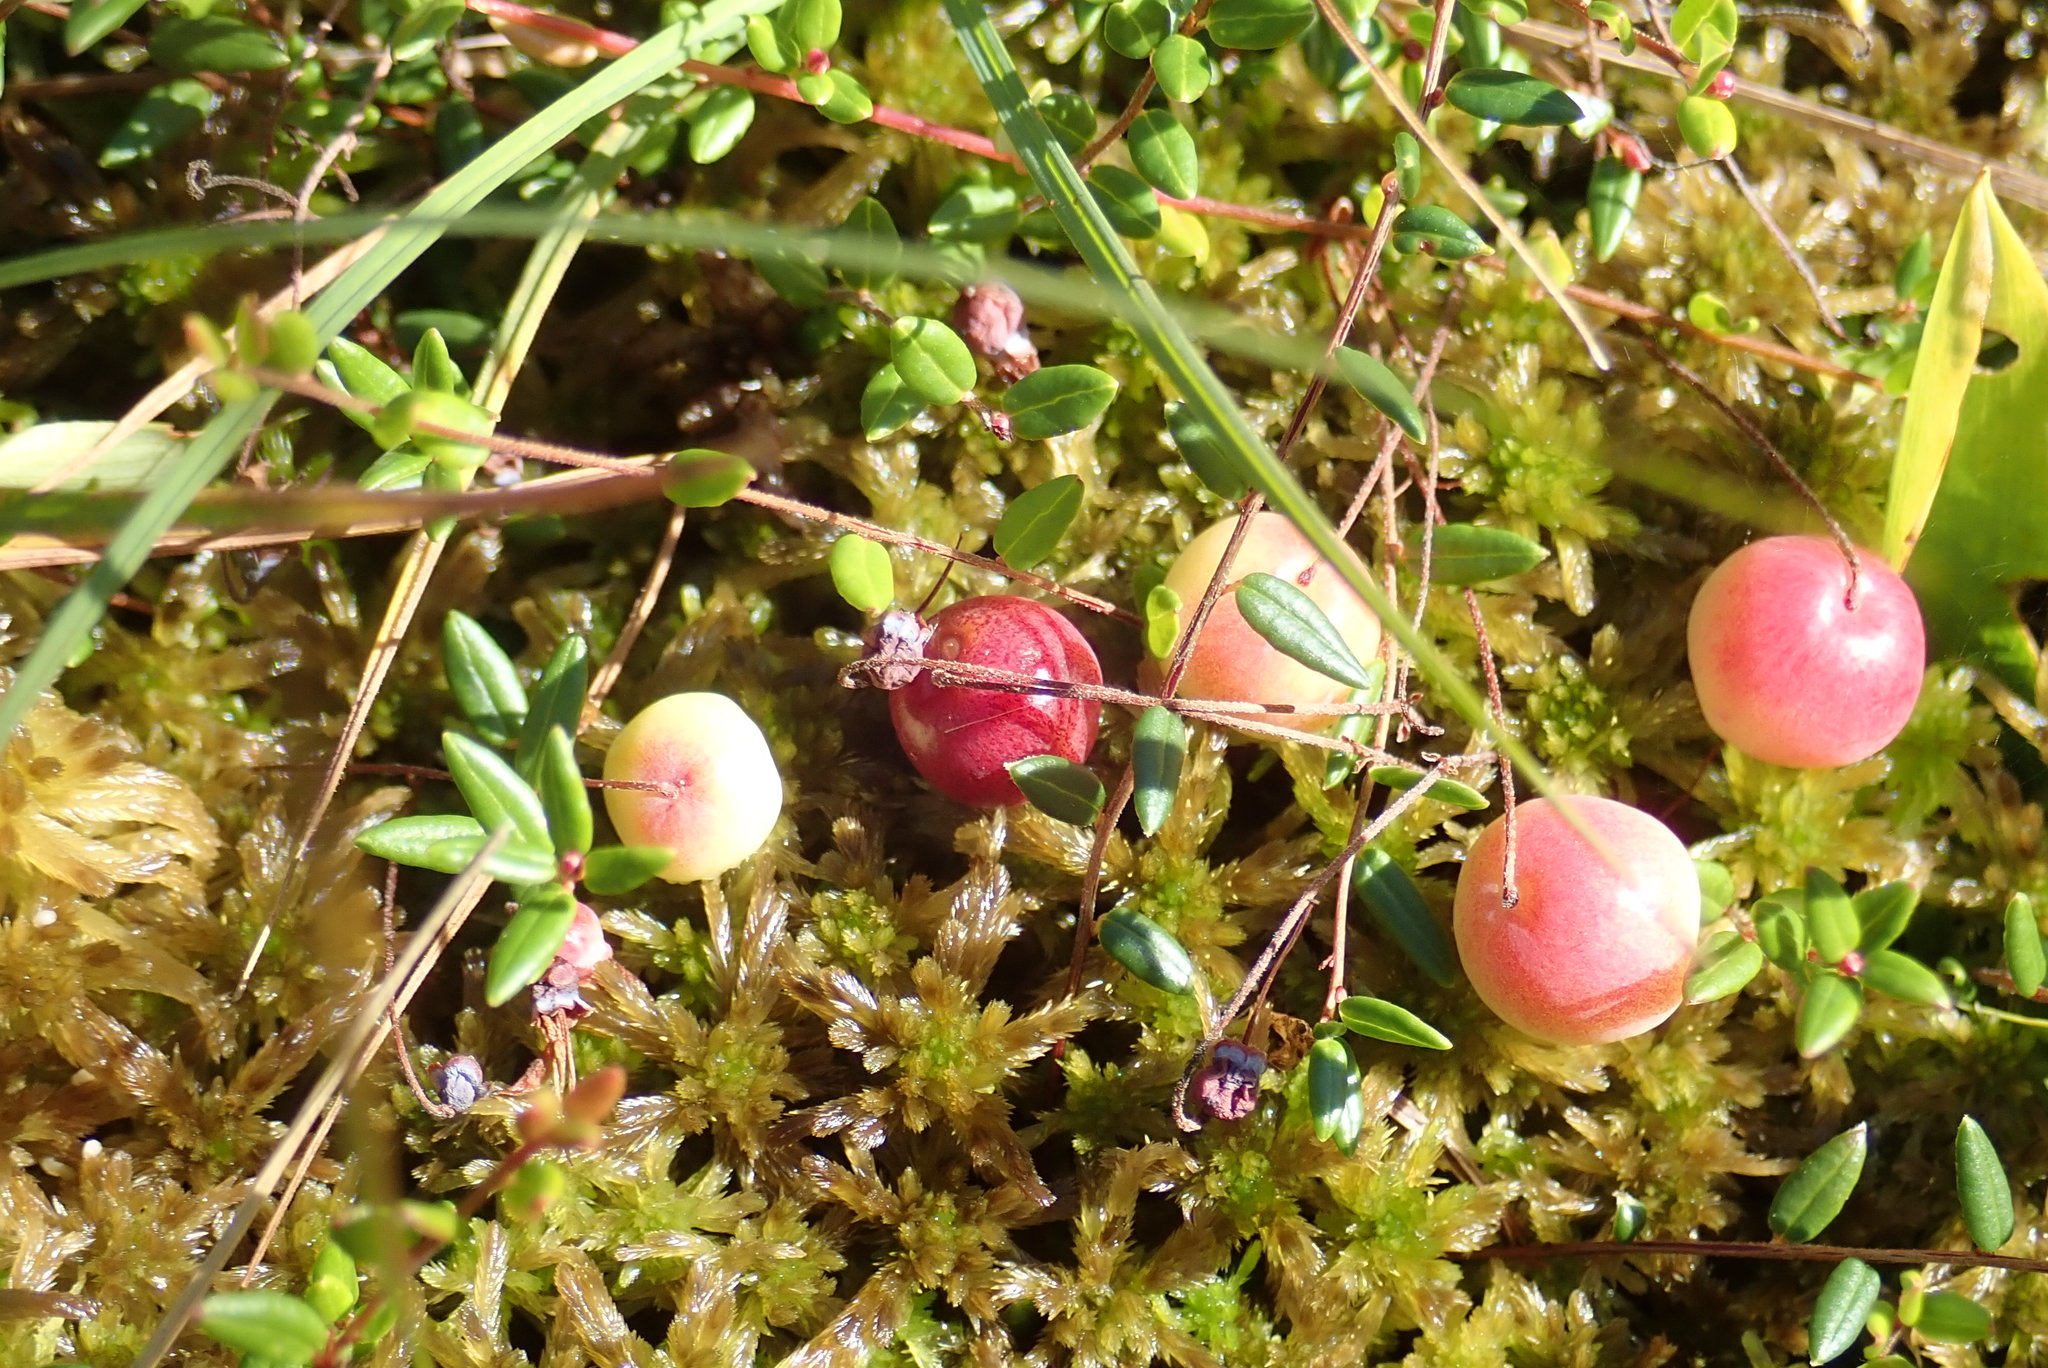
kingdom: Plantae
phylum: Tracheophyta
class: Magnoliopsida
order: Ericales
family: Ericaceae
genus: Vaccinium
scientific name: Vaccinium oxycoccos
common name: Cranberry
